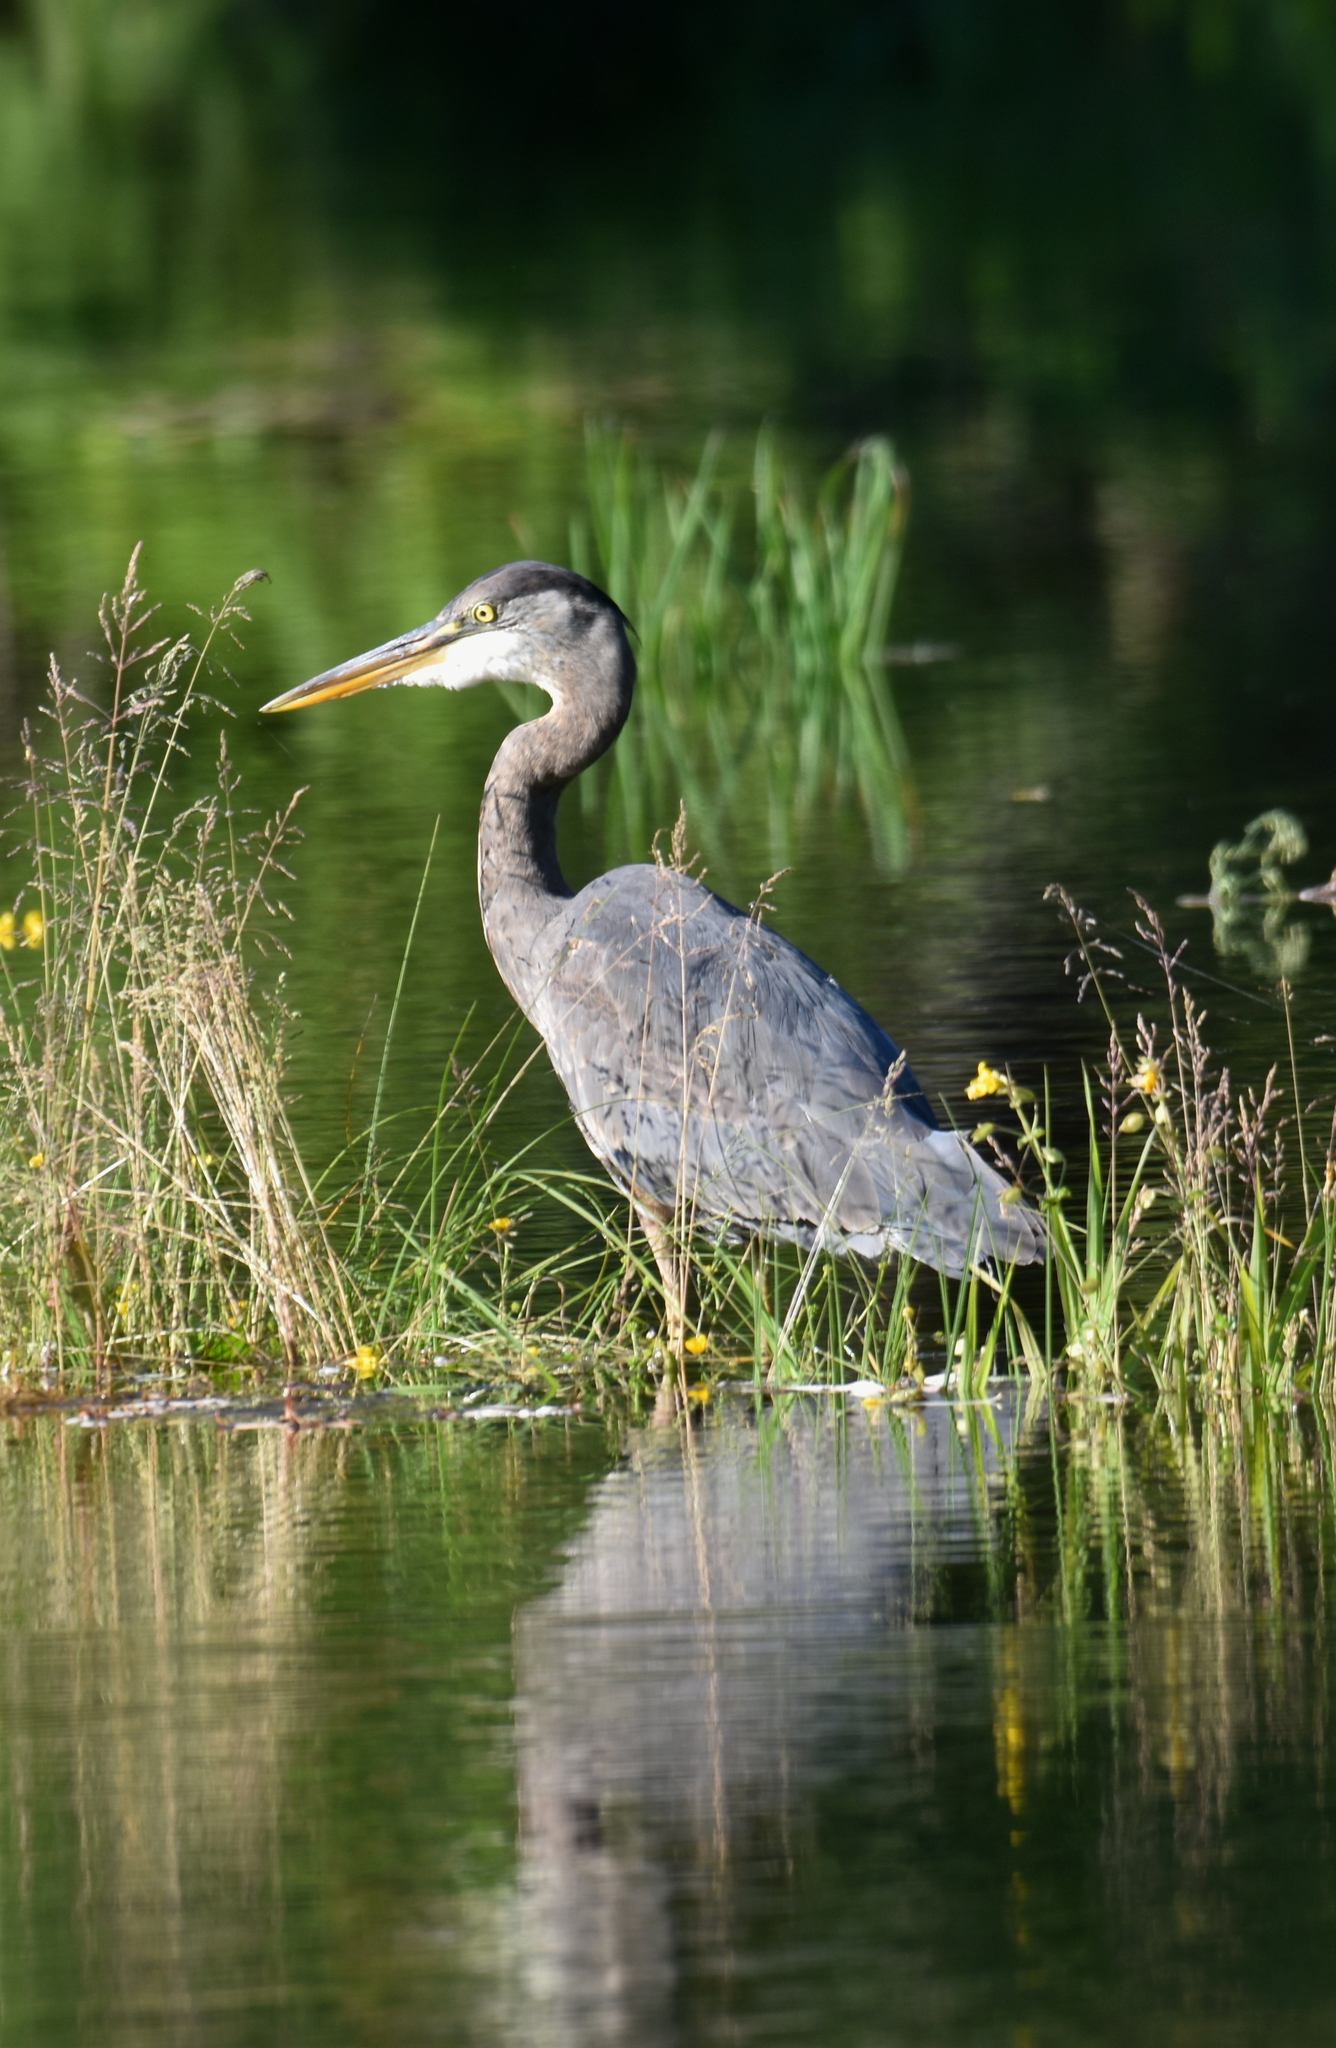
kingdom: Animalia
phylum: Chordata
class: Aves
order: Pelecaniformes
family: Ardeidae
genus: Ardea
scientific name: Ardea herodias
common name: Great blue heron
